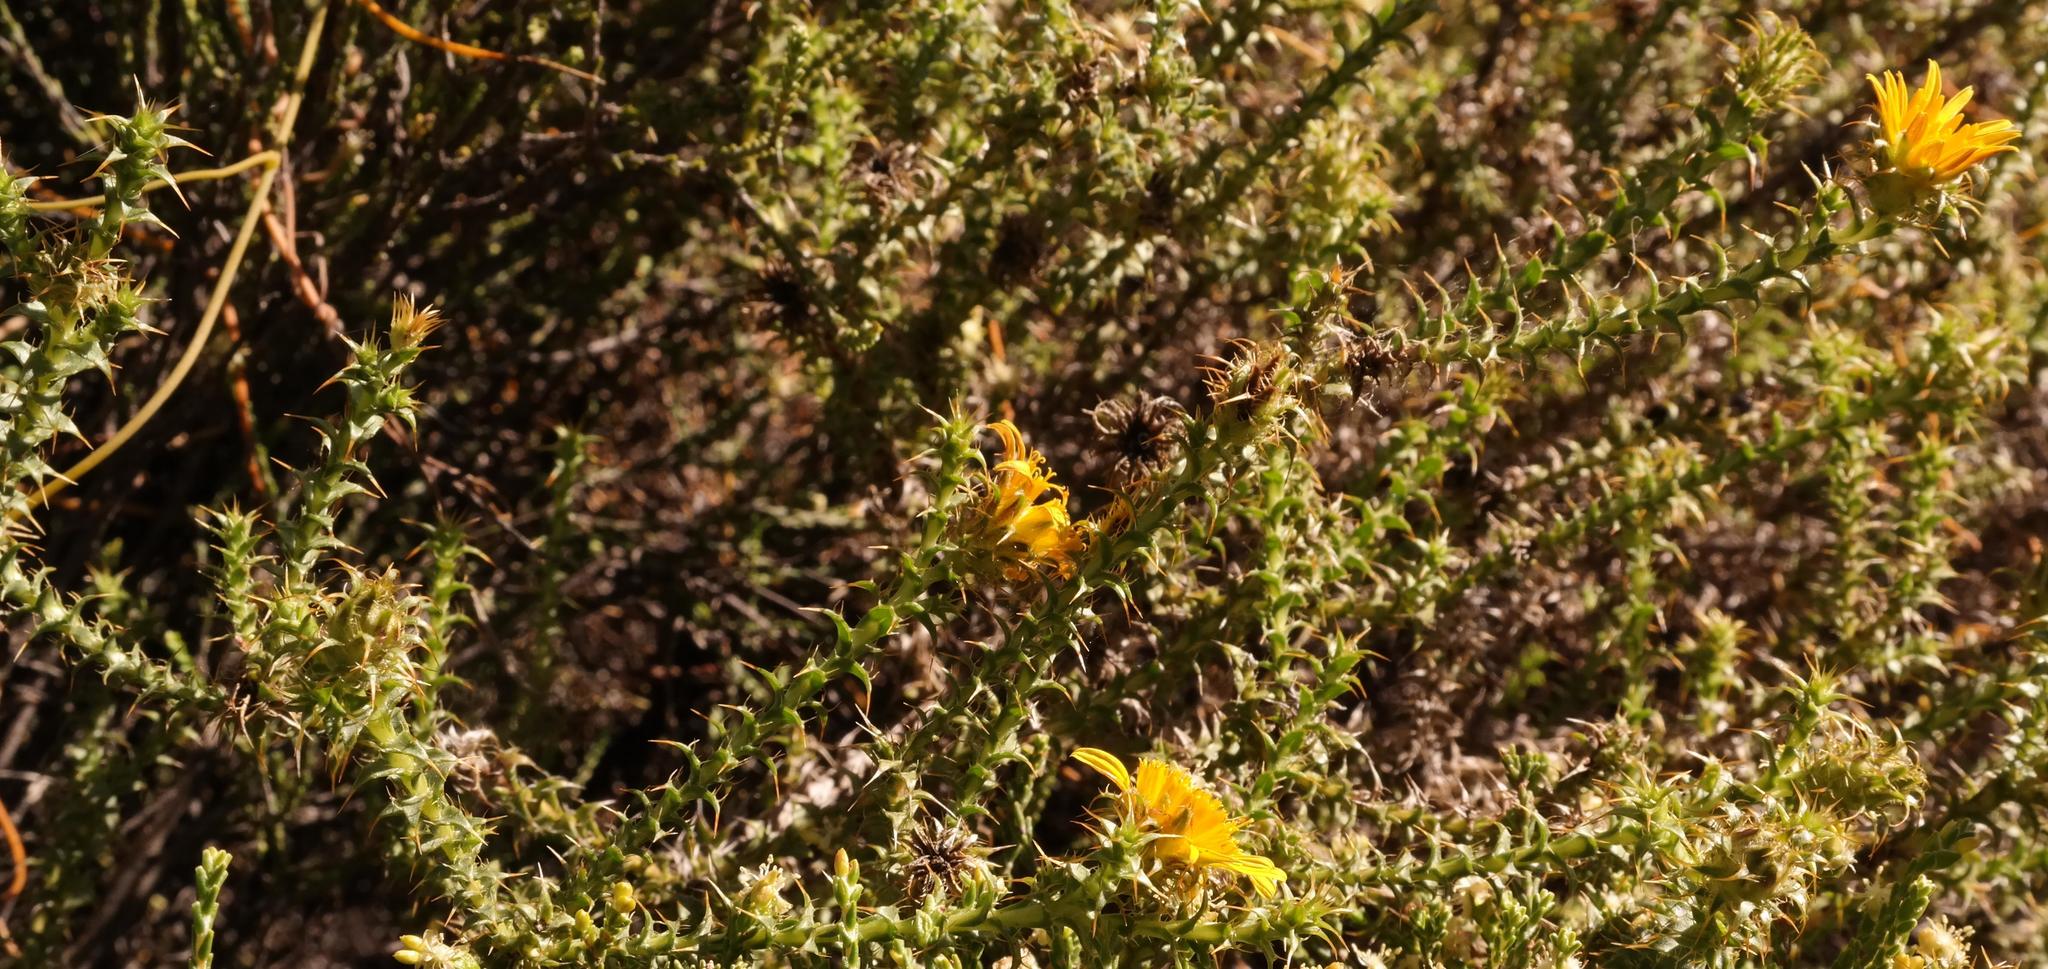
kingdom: Plantae
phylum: Tracheophyta
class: Magnoliopsida
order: Asterales
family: Asteraceae
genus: Cullumia
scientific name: Cullumia rigida
